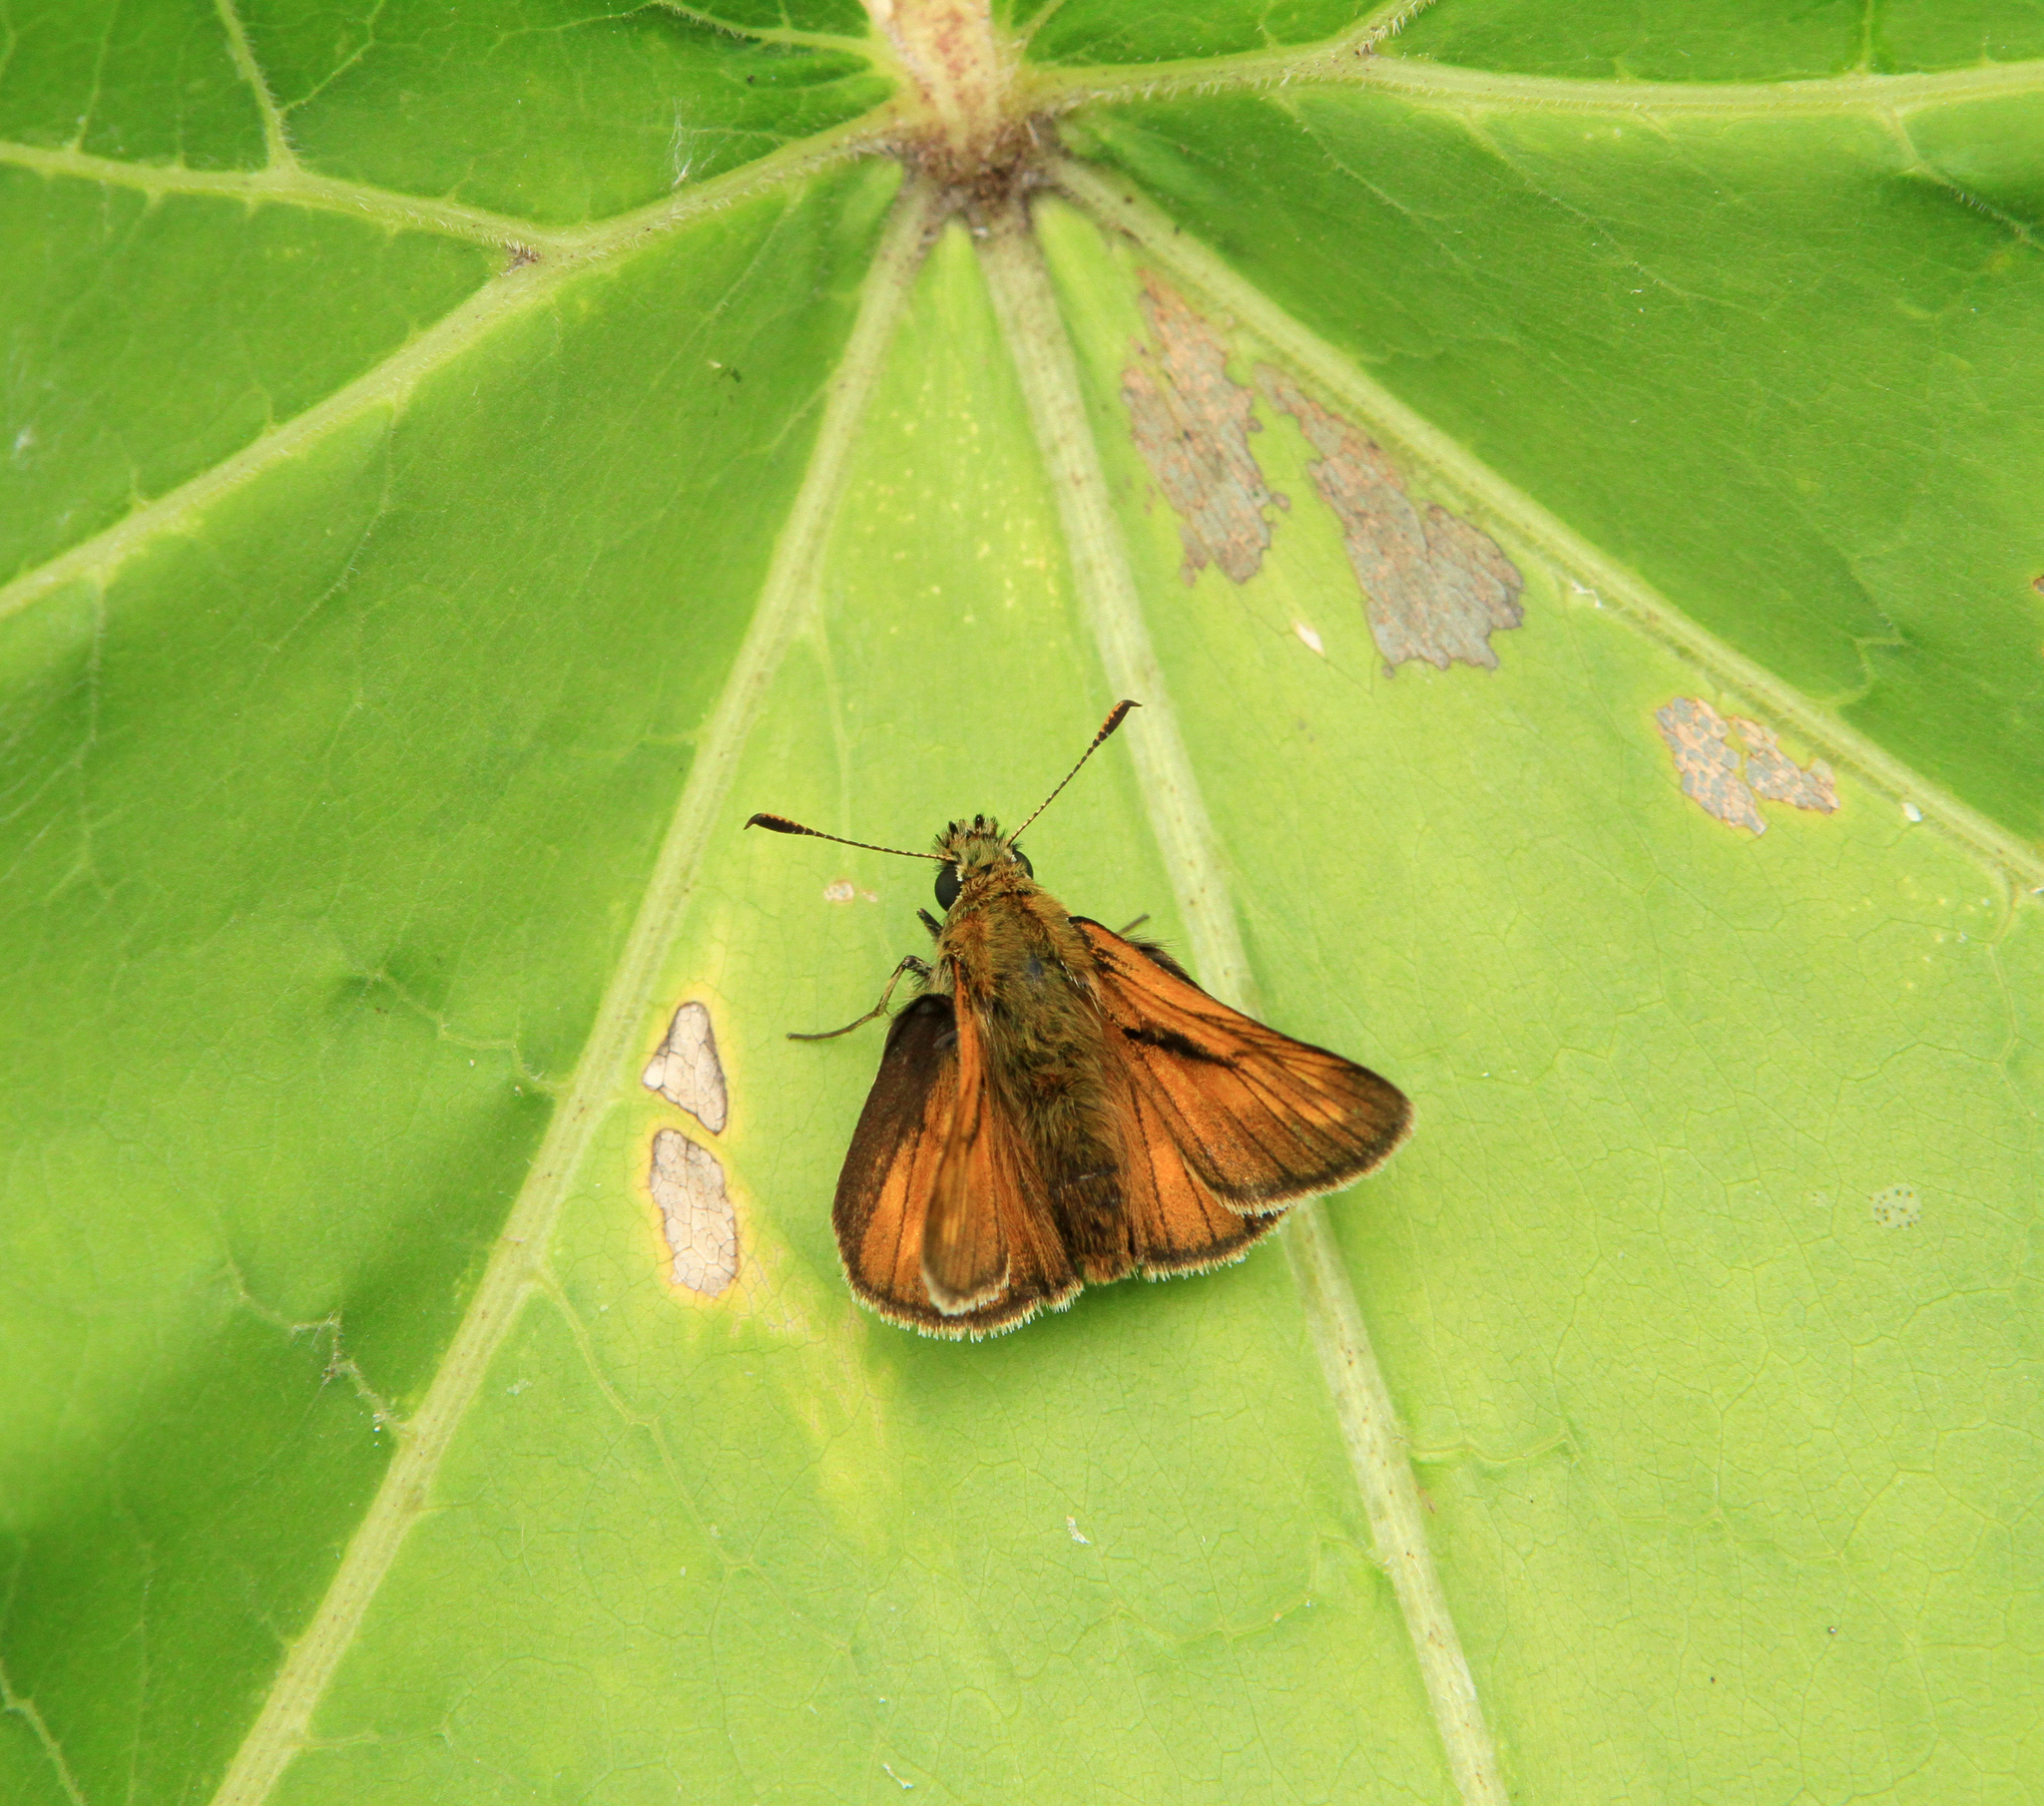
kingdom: Animalia
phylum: Arthropoda
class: Insecta
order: Lepidoptera
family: Hesperiidae
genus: Ochlodes
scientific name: Ochlodes venata
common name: Large skipper
